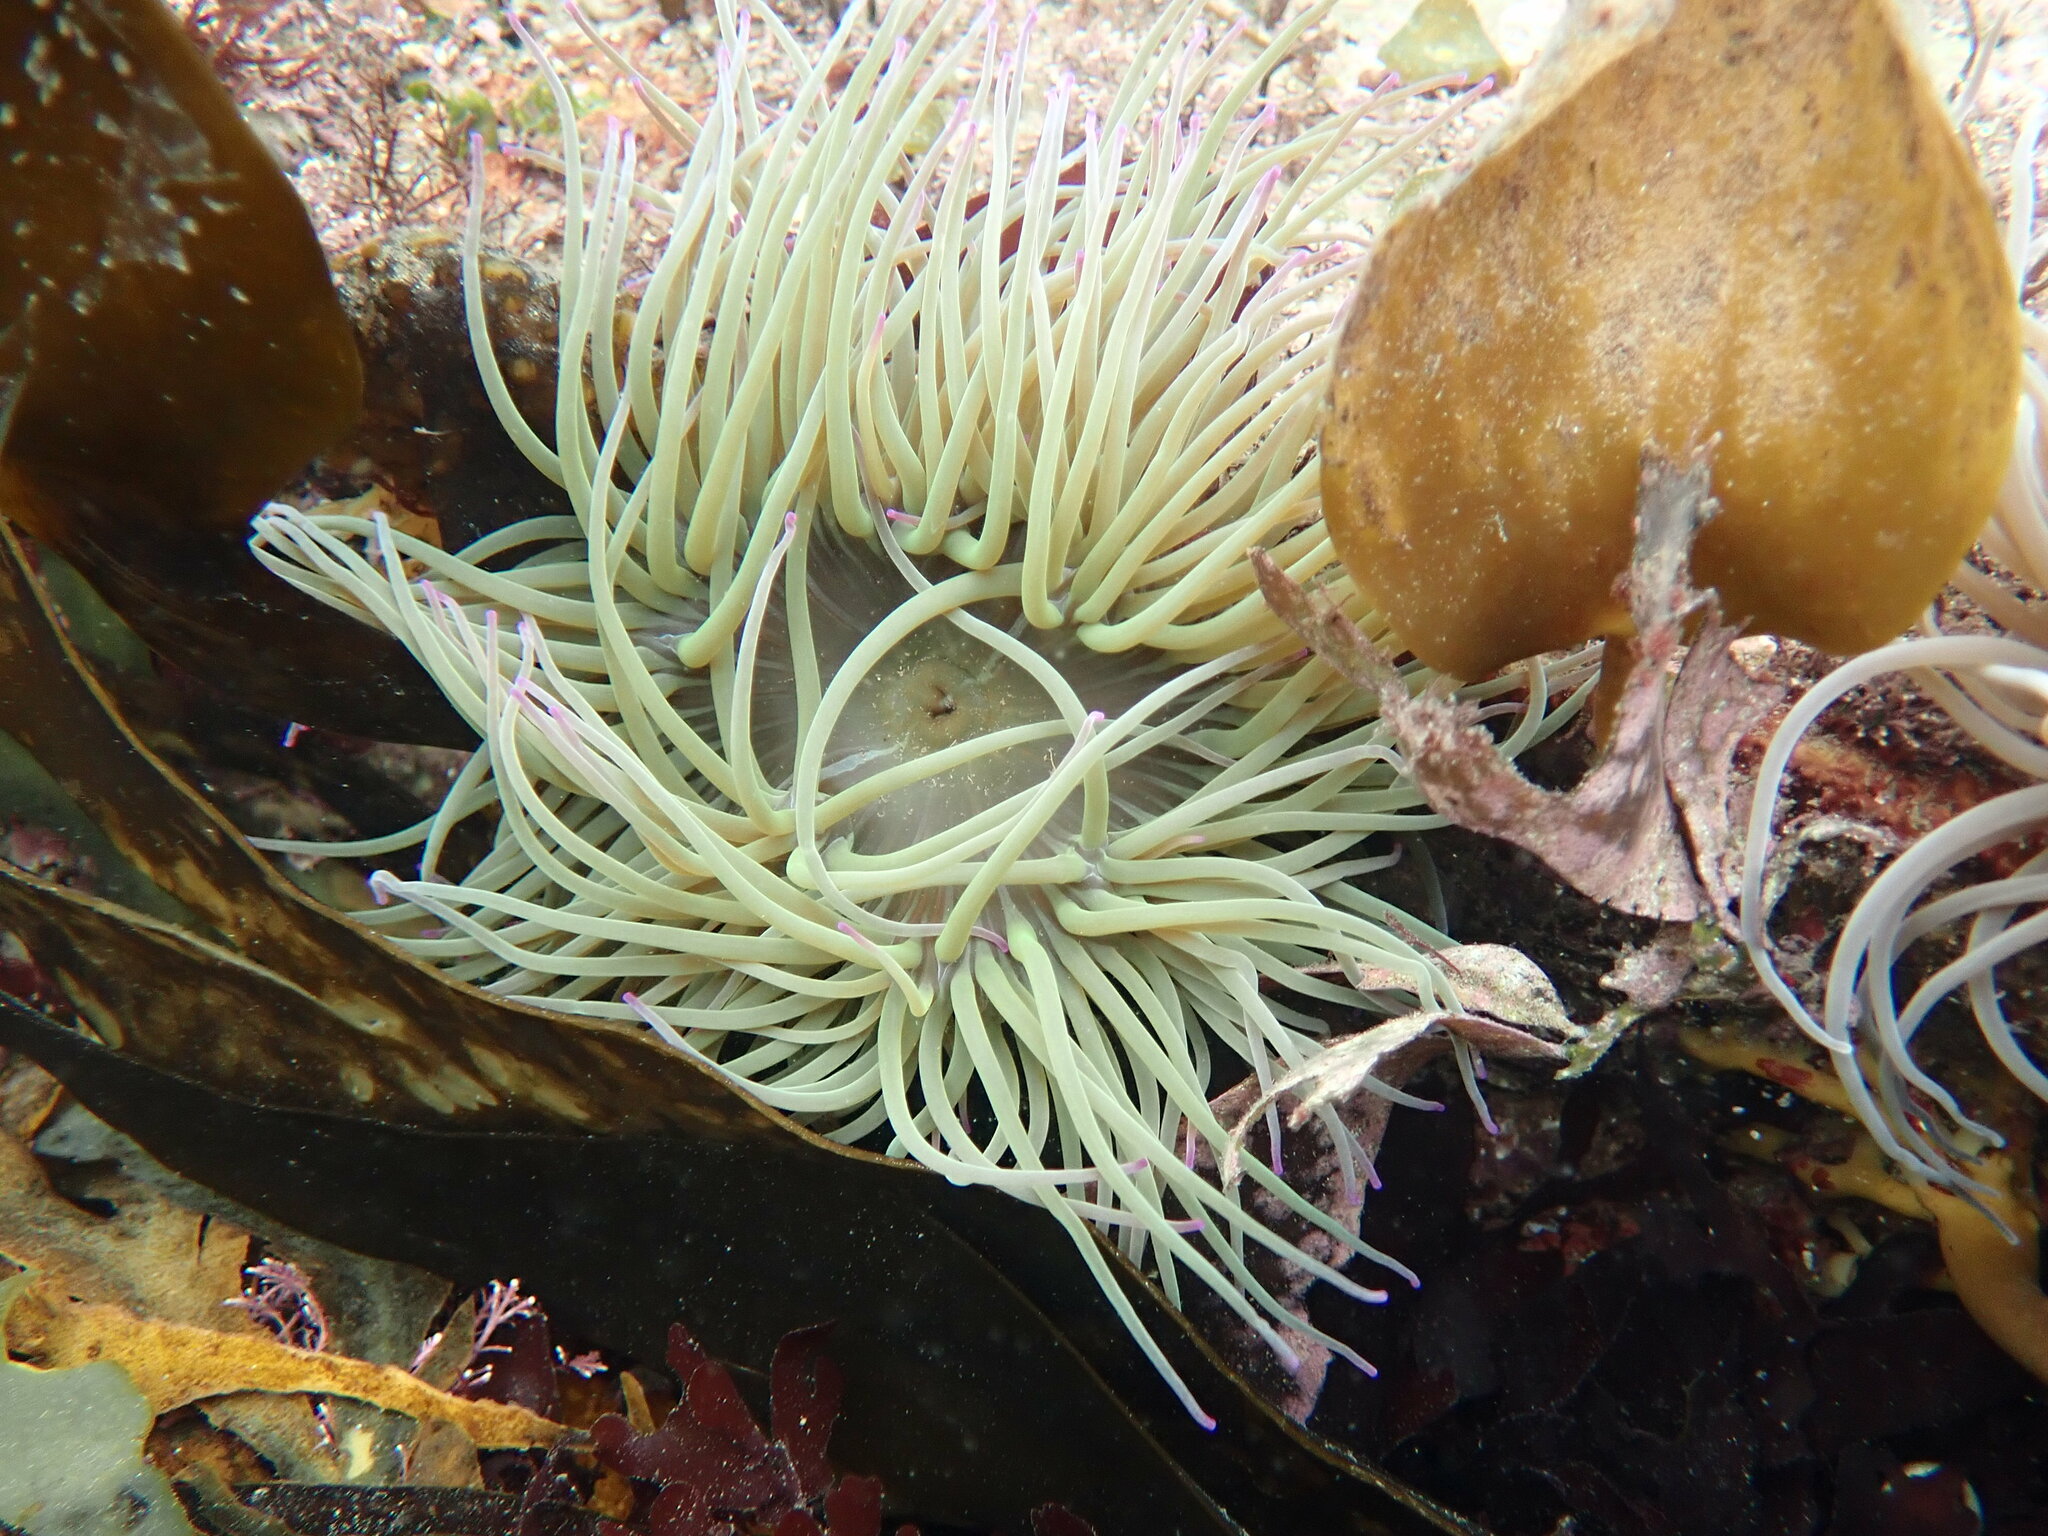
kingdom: Animalia
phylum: Cnidaria
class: Anthozoa
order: Actiniaria
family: Actiniidae
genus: Anemonia
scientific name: Anemonia viridis
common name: Snakelocks anemone
